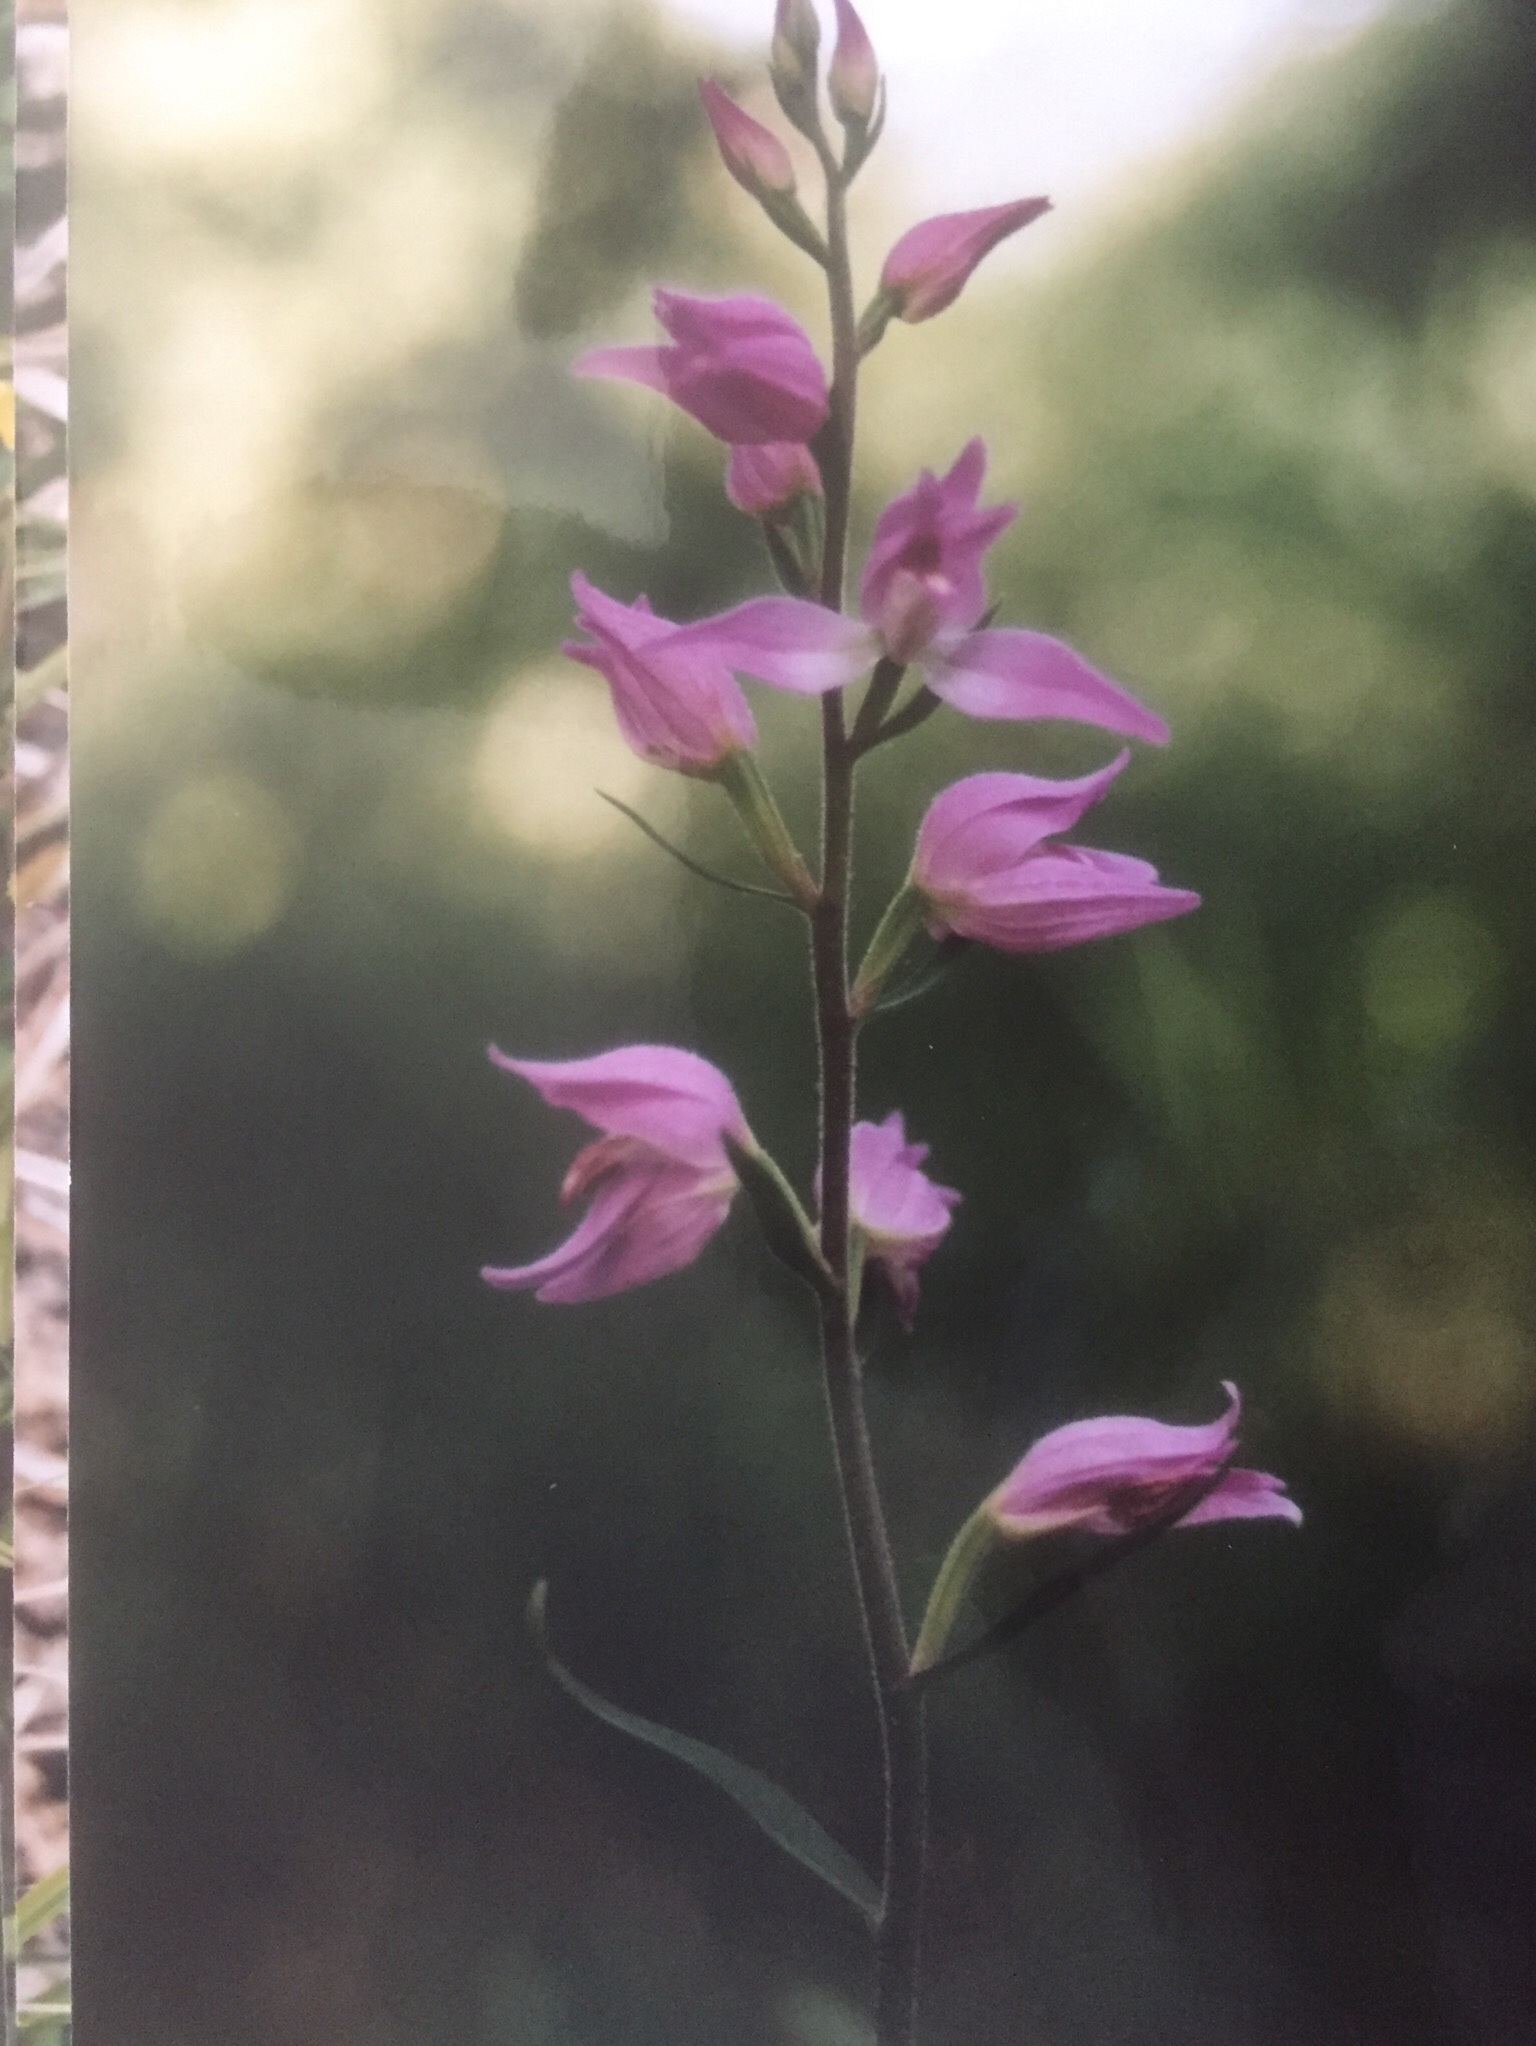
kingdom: Plantae
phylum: Tracheophyta
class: Liliopsida
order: Asparagales
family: Orchidaceae
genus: Cephalanthera
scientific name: Cephalanthera rubra
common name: Red helleborine
